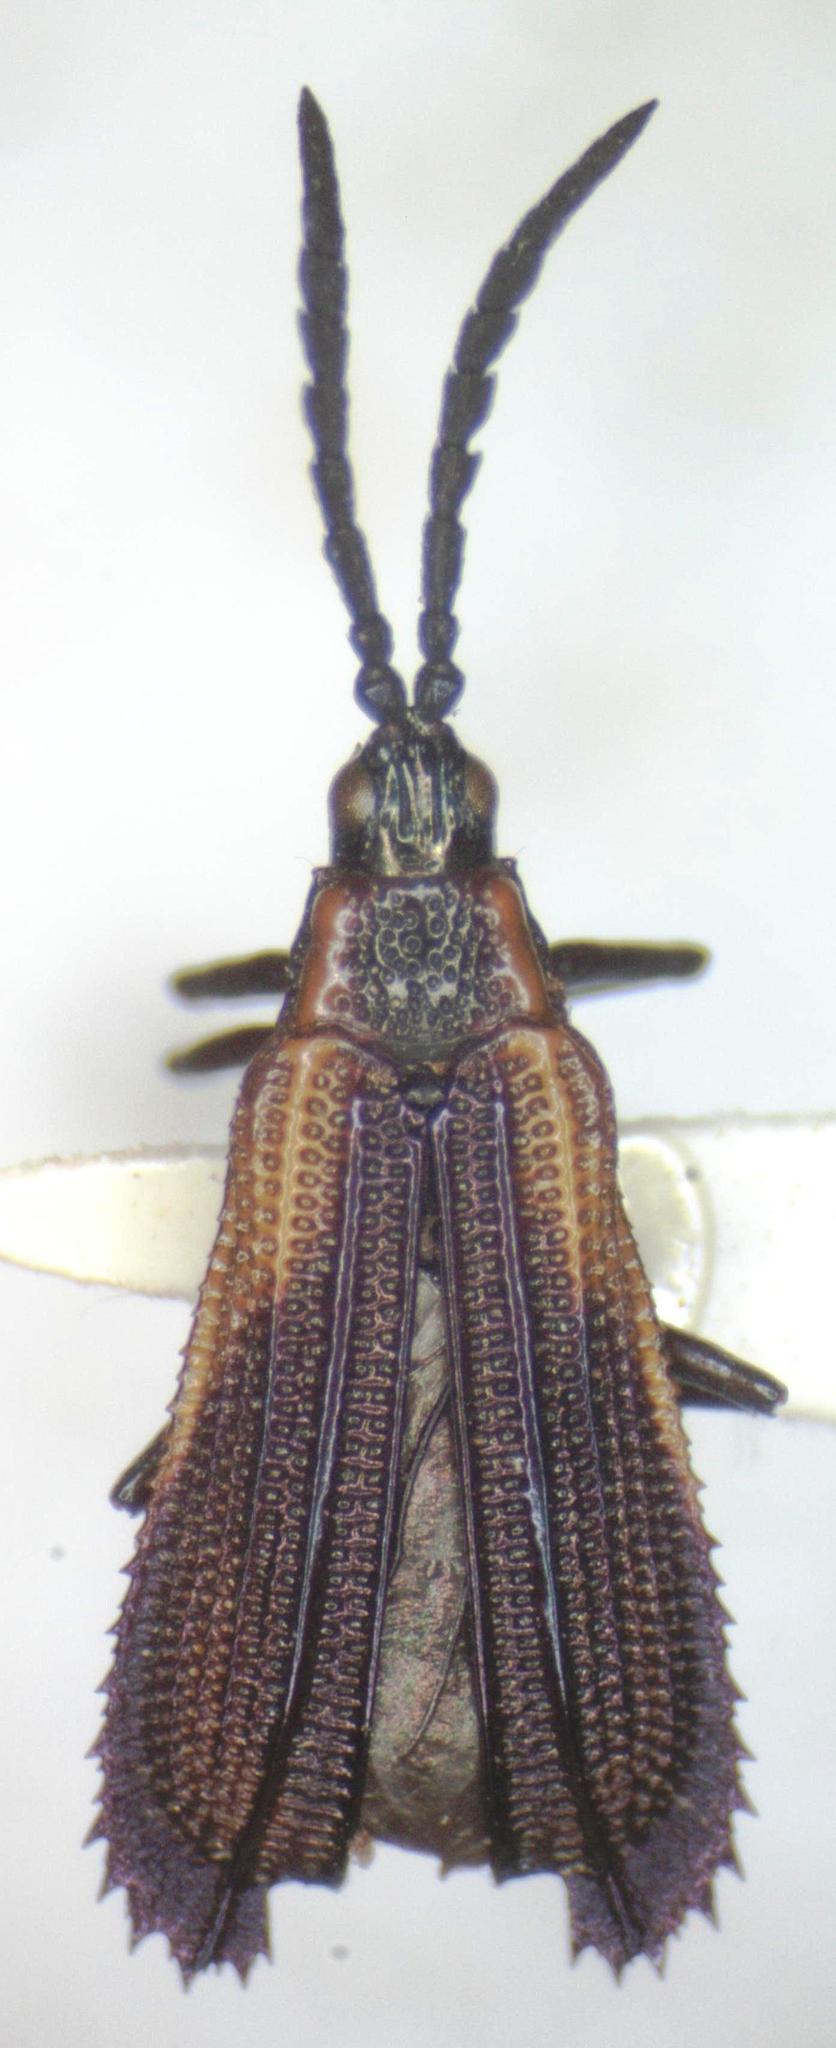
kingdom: Animalia
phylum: Arthropoda
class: Insecta
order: Coleoptera
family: Chrysomelidae
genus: Pentispa
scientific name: Pentispa explanata
